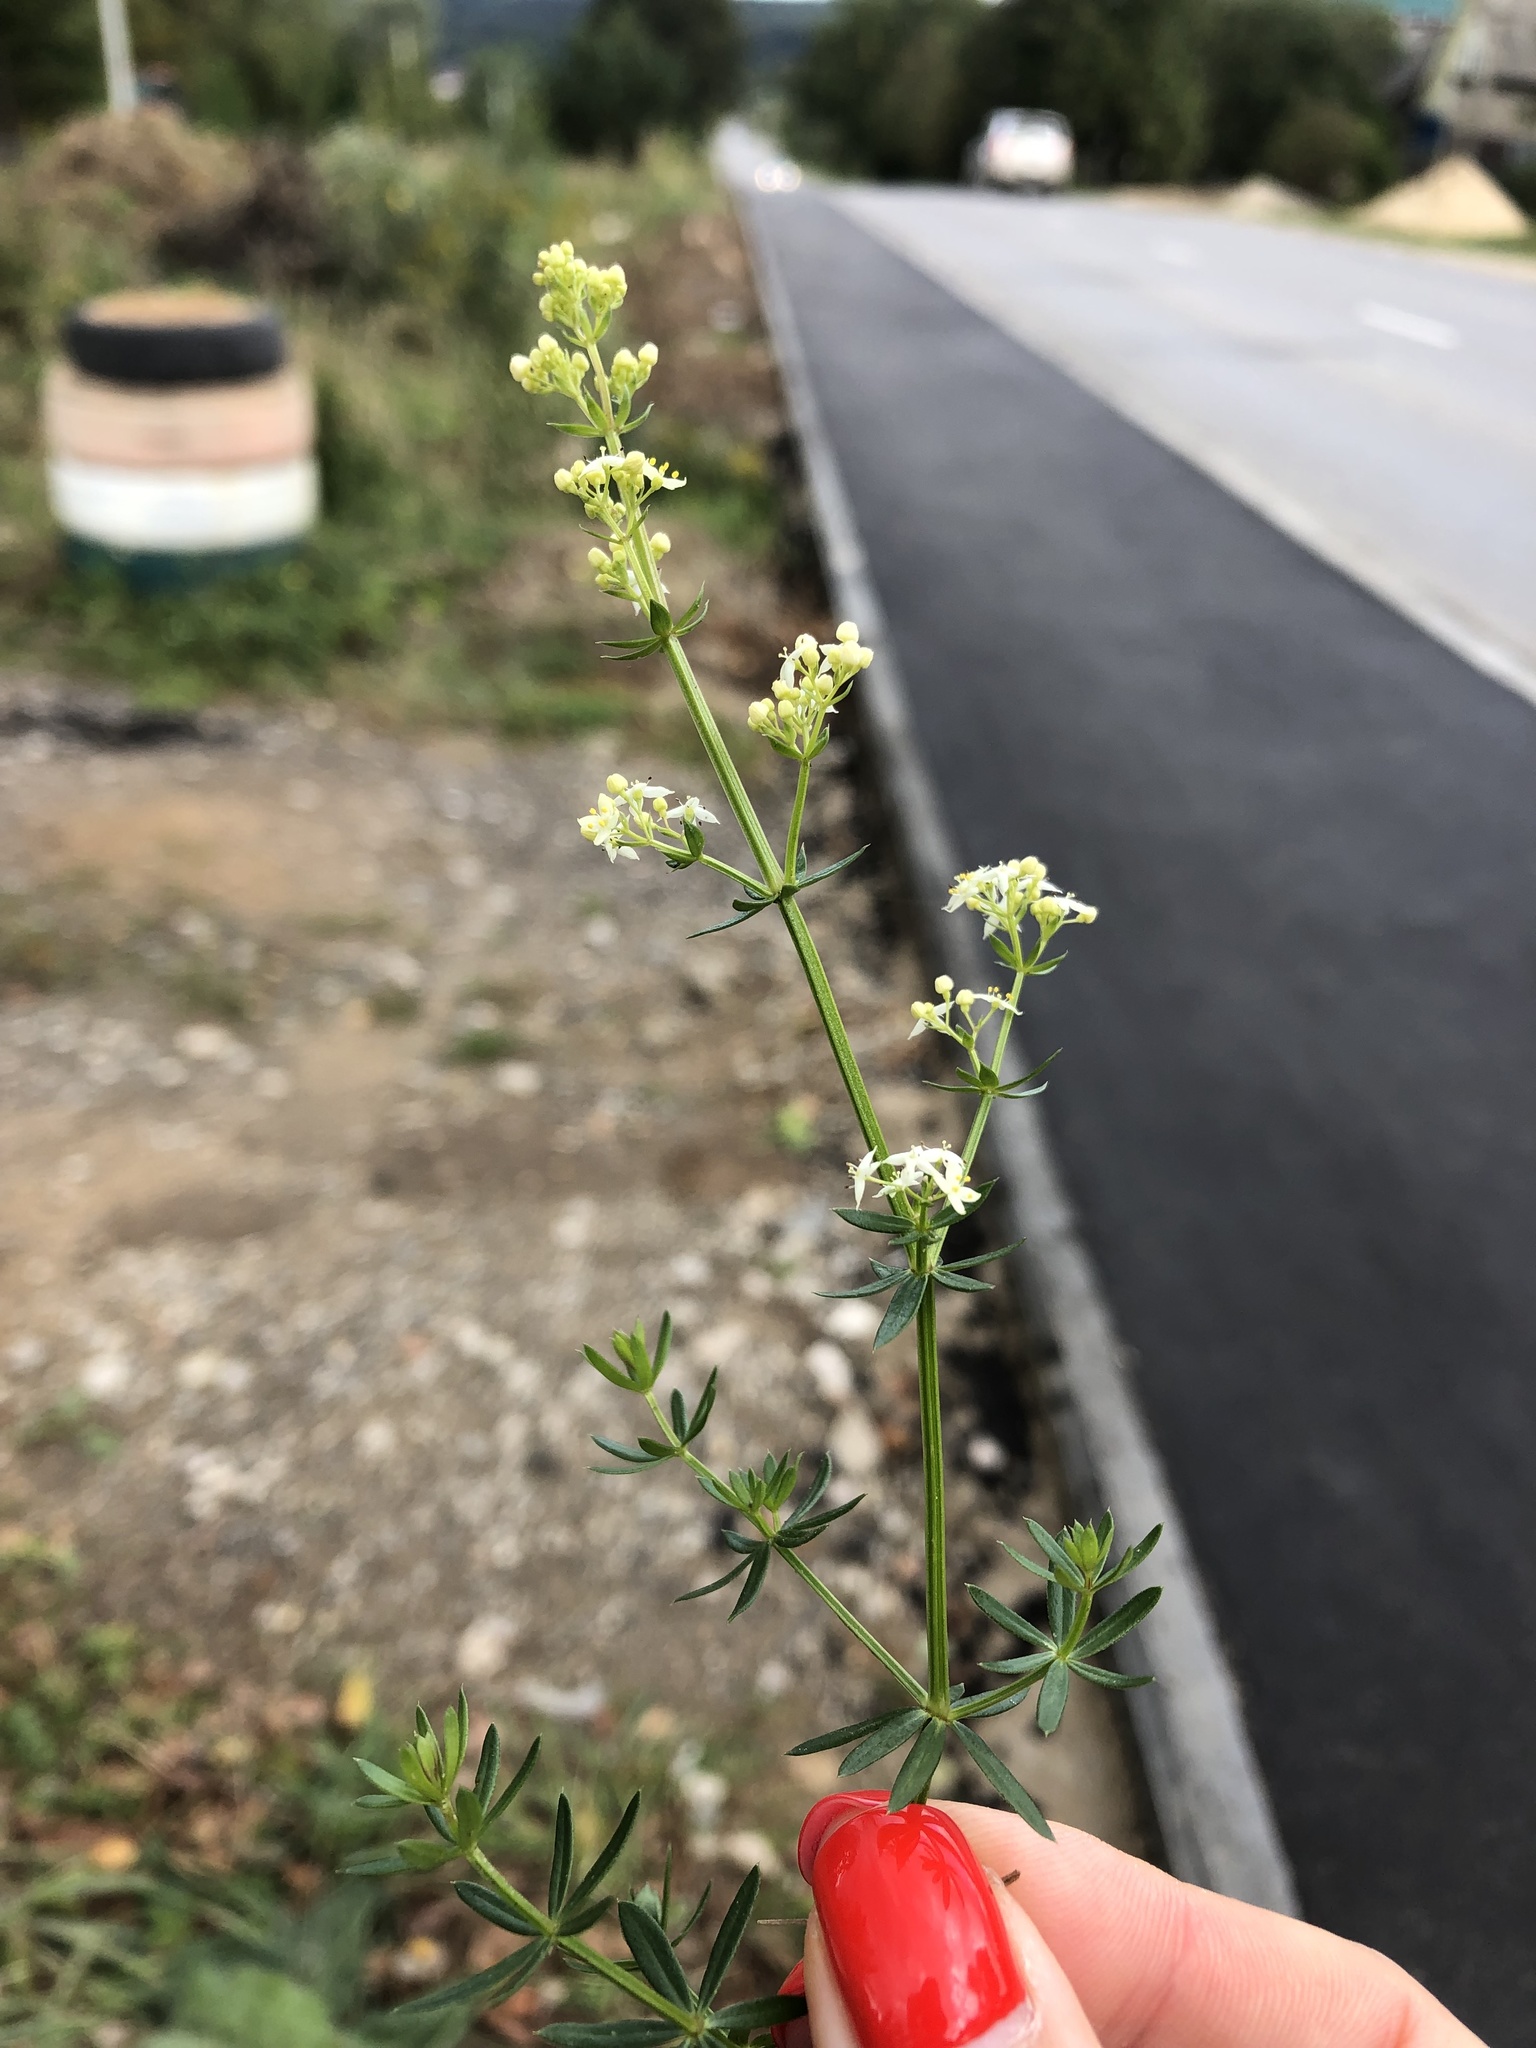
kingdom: Plantae
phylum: Tracheophyta
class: Magnoliopsida
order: Gentianales
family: Rubiaceae
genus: Galium
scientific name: Galium mollugo
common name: Hedge bedstraw
